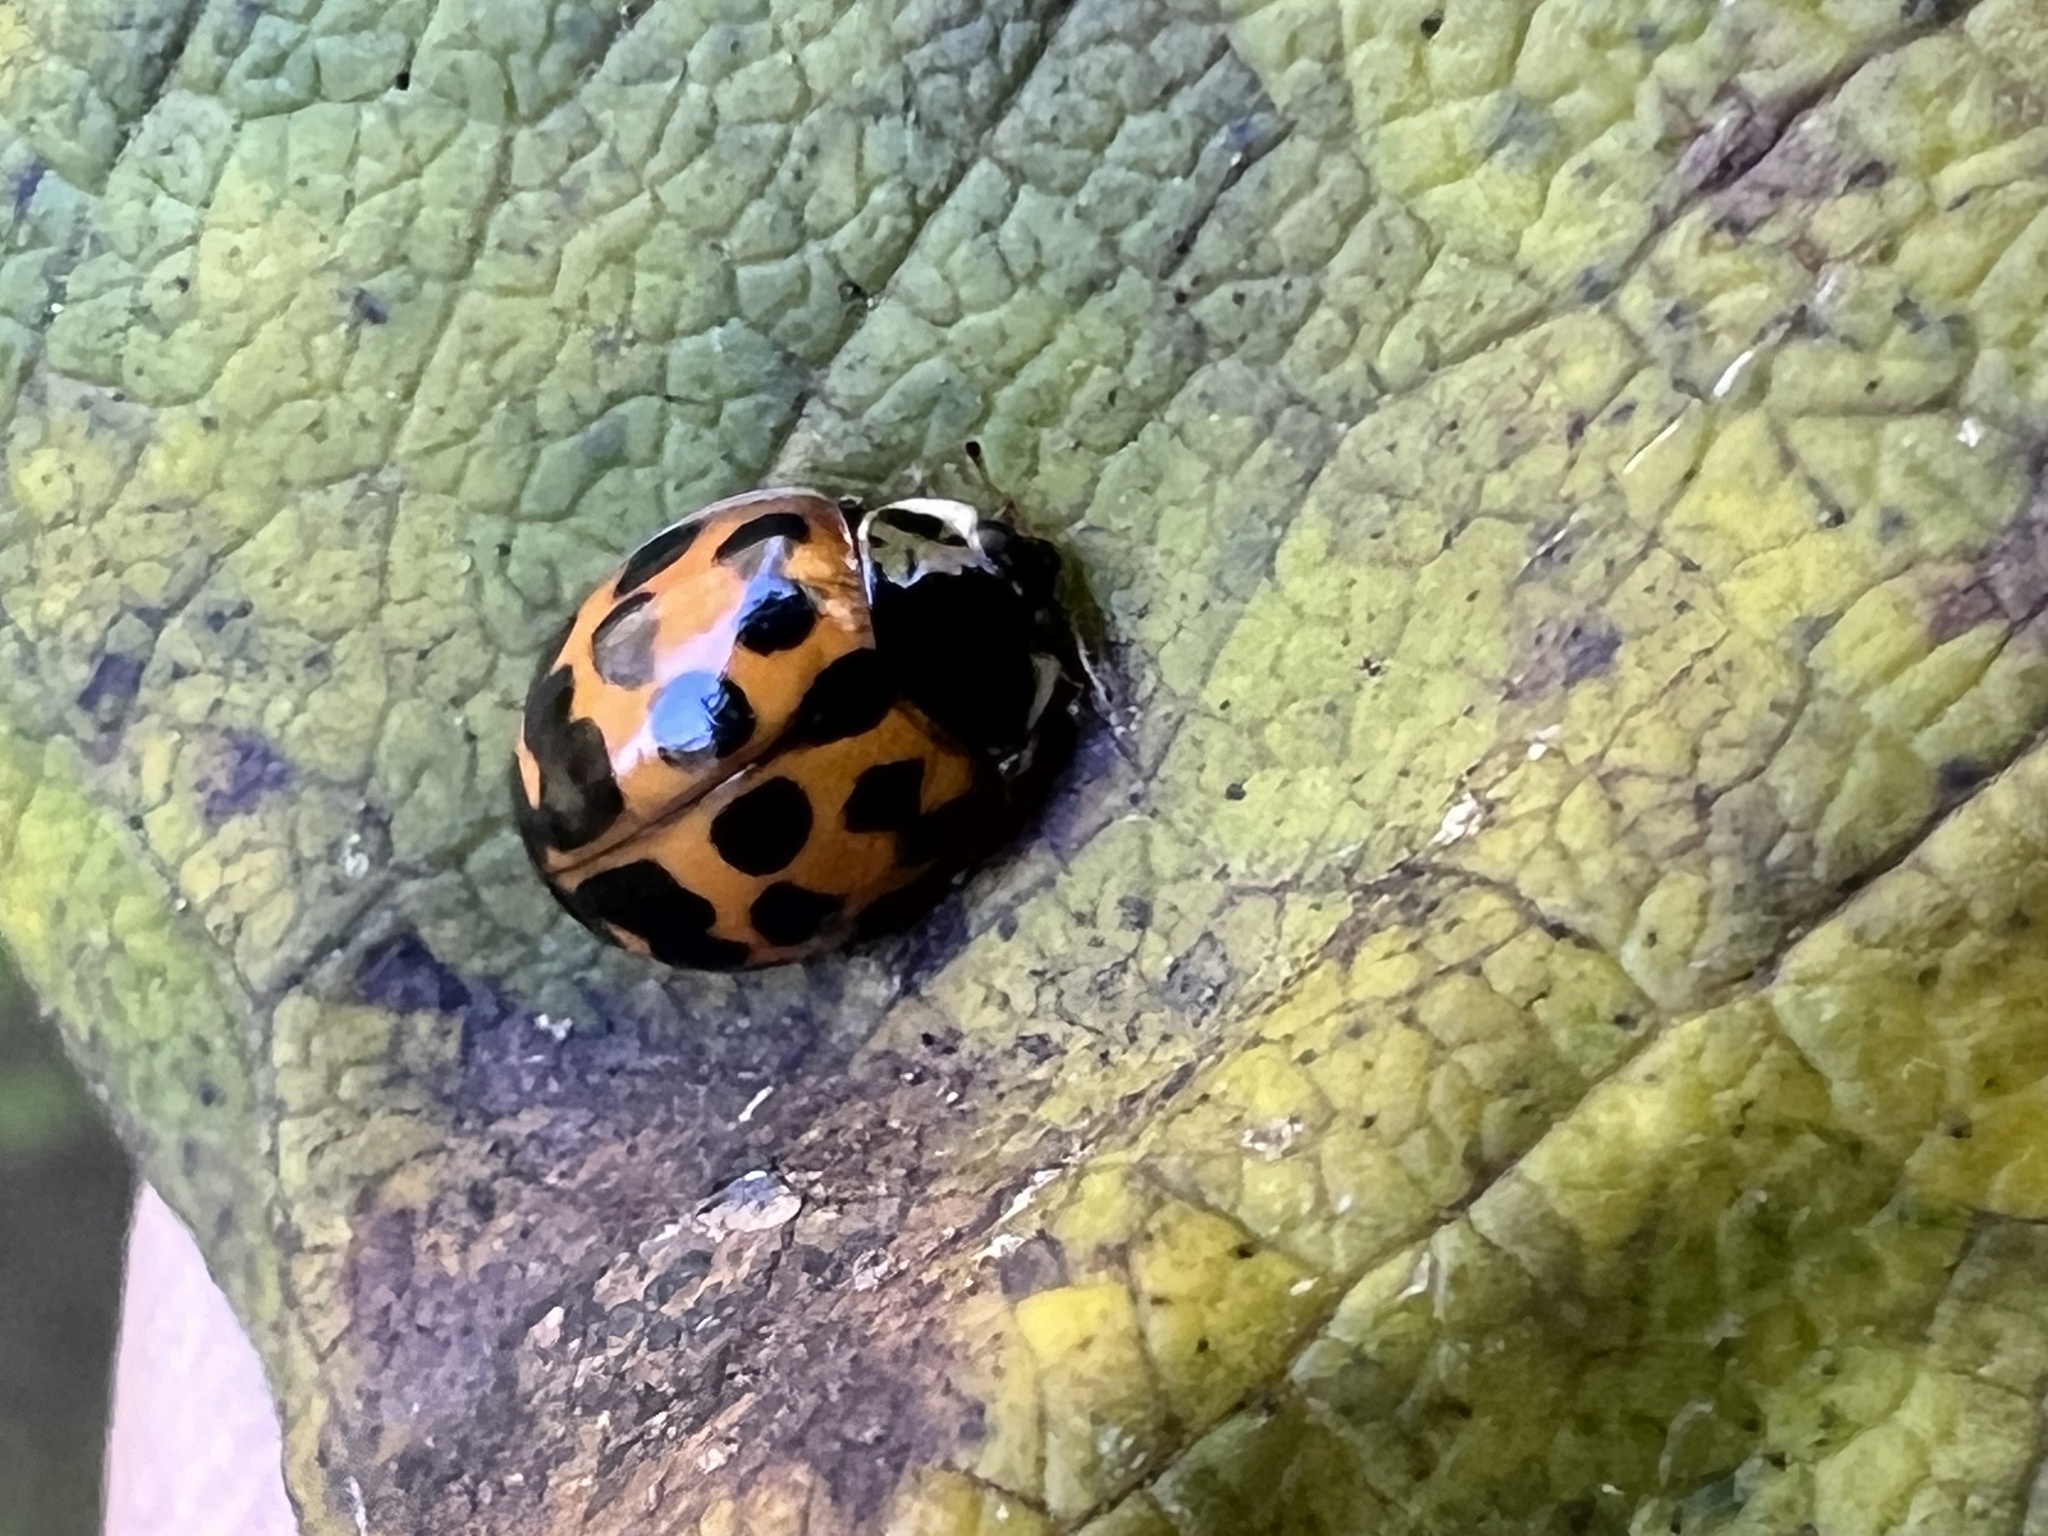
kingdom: Animalia
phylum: Arthropoda
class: Insecta
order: Coleoptera
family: Coccinellidae
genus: Harmonia
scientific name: Harmonia axyridis
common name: Harlequin ladybird
